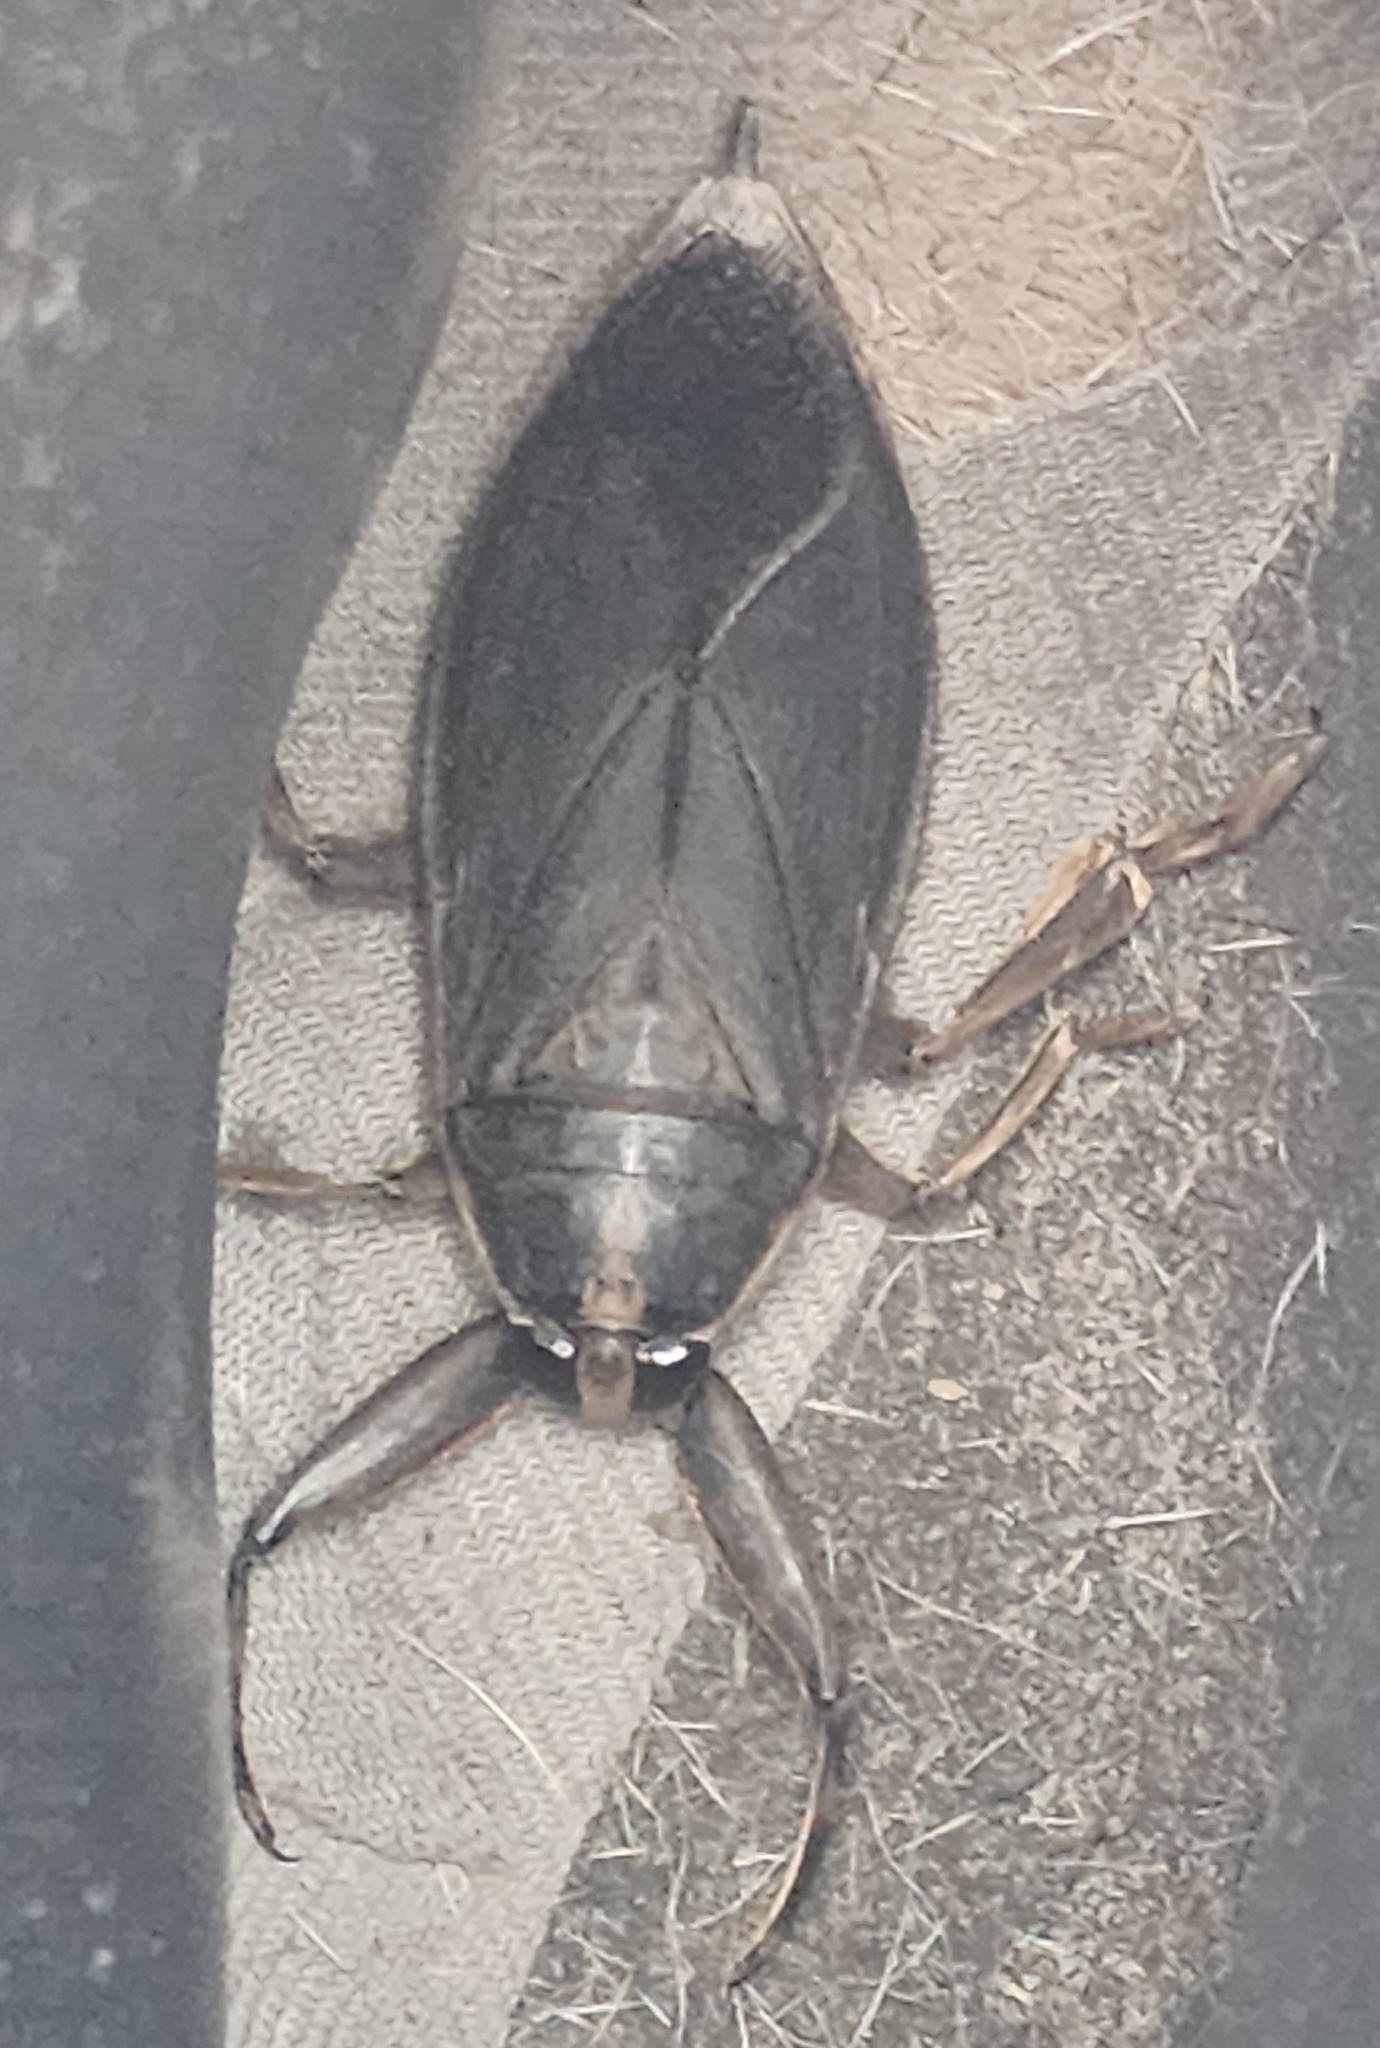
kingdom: Animalia
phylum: Arthropoda
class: Insecta
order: Hemiptera
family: Belostomatidae
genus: Benacus
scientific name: Benacus griseus
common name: Eastern toe-biter
